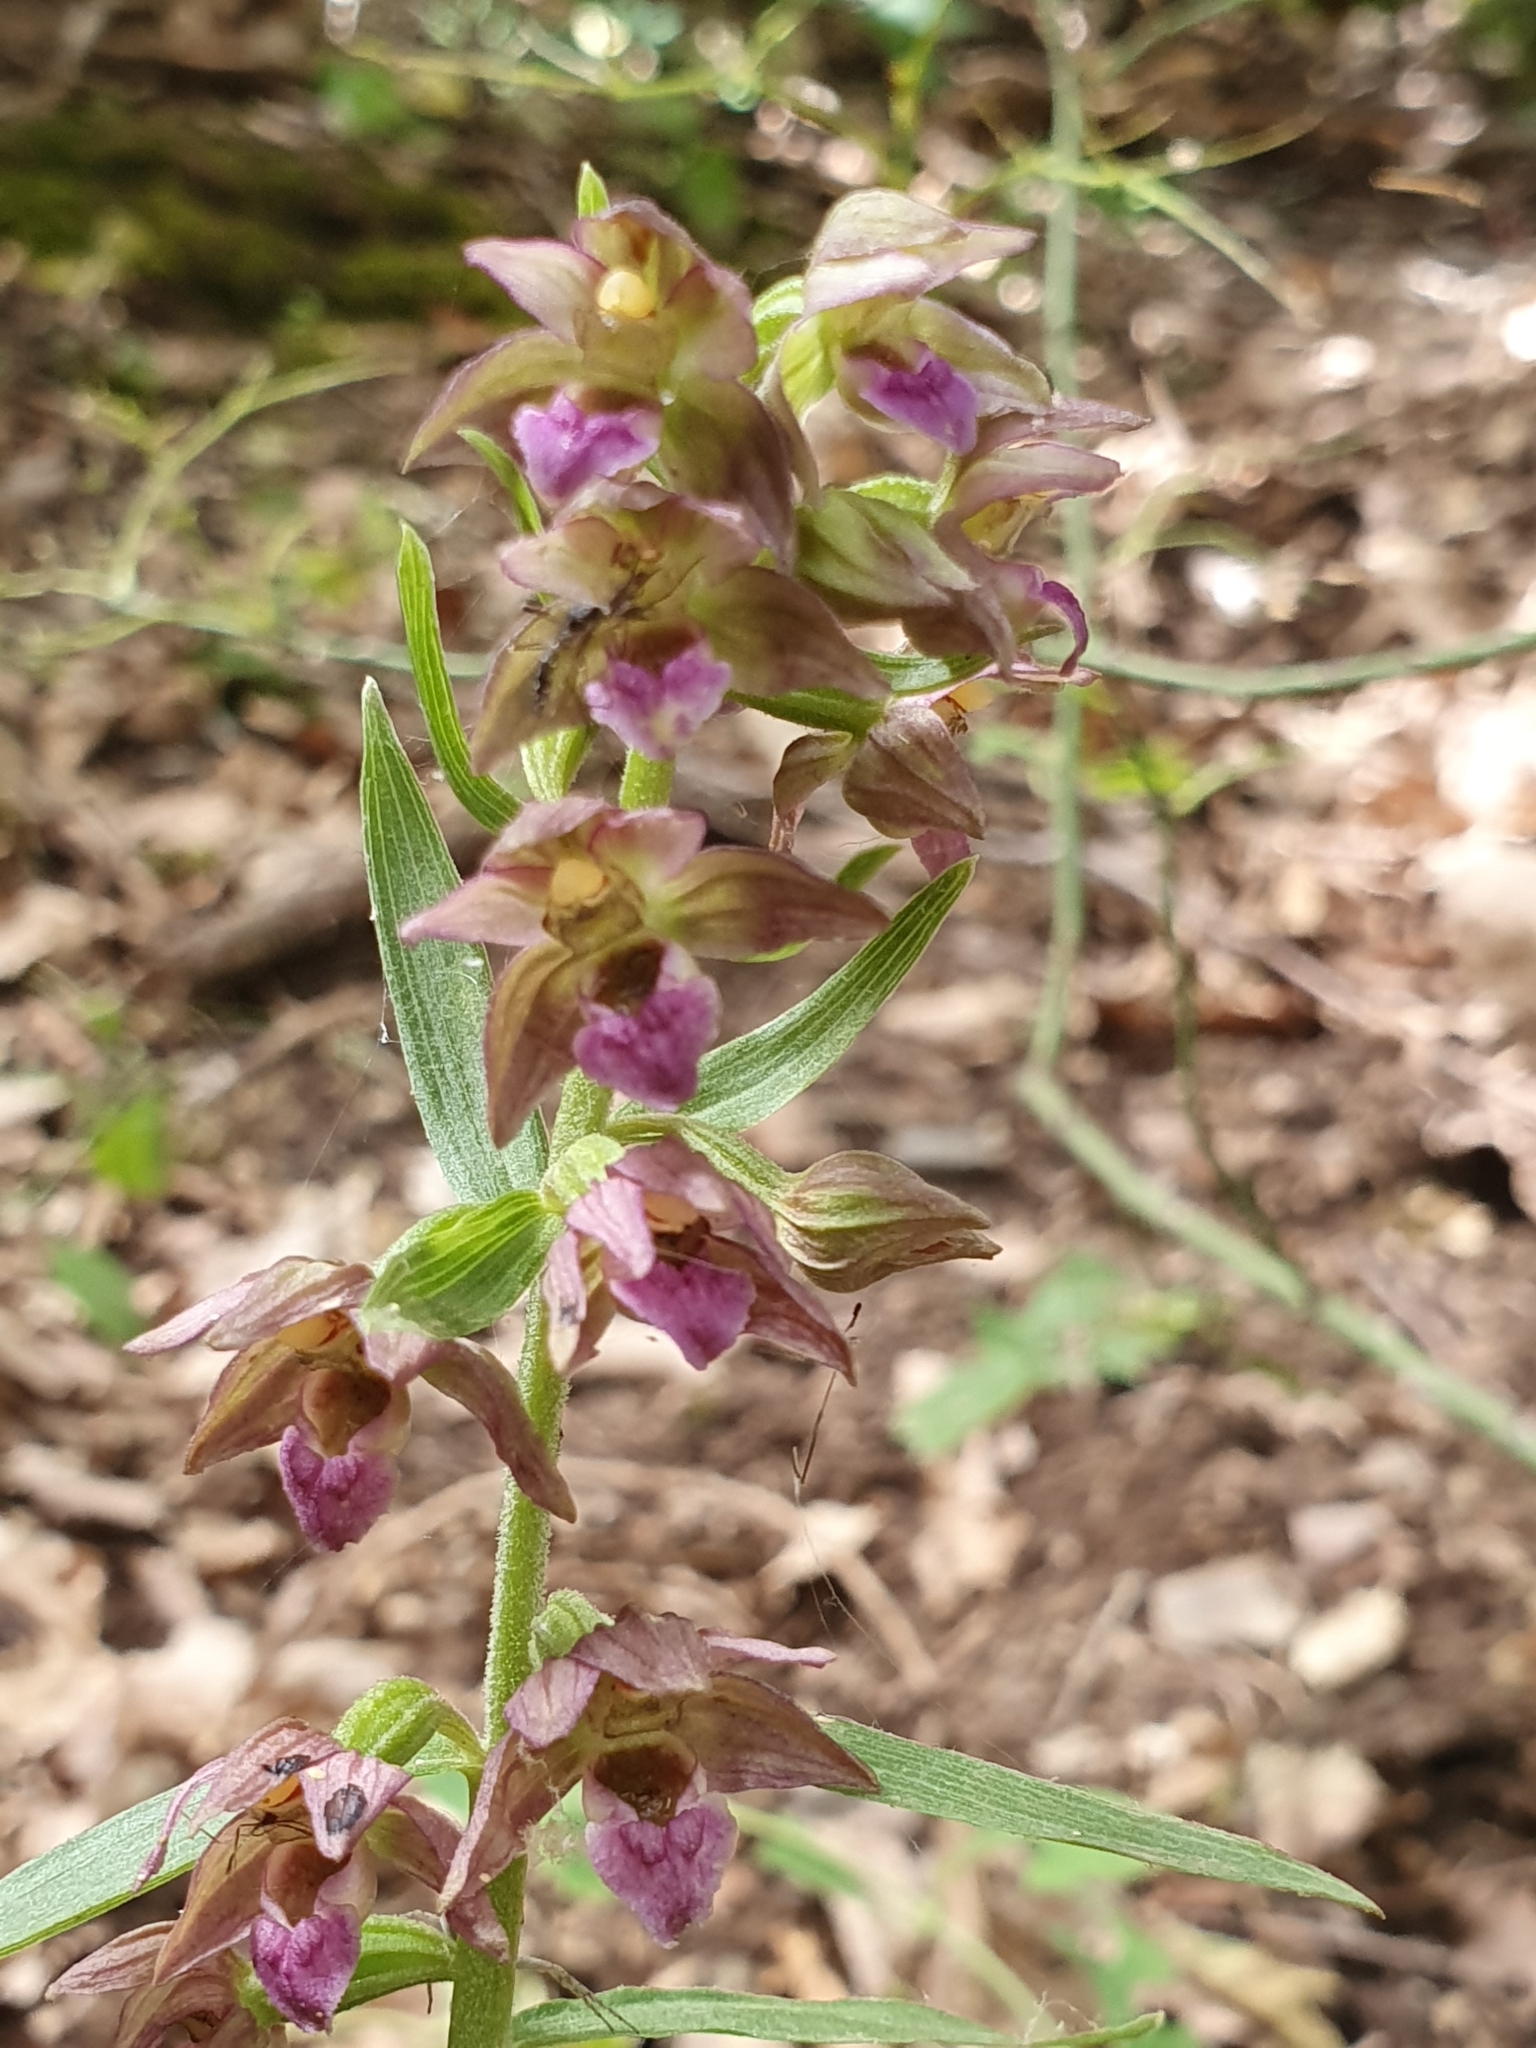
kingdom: Plantae
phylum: Tracheophyta
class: Liliopsida
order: Asparagales
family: Orchidaceae
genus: Epipactis
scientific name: Epipactis helleborine
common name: Broad-leaved helleborine
